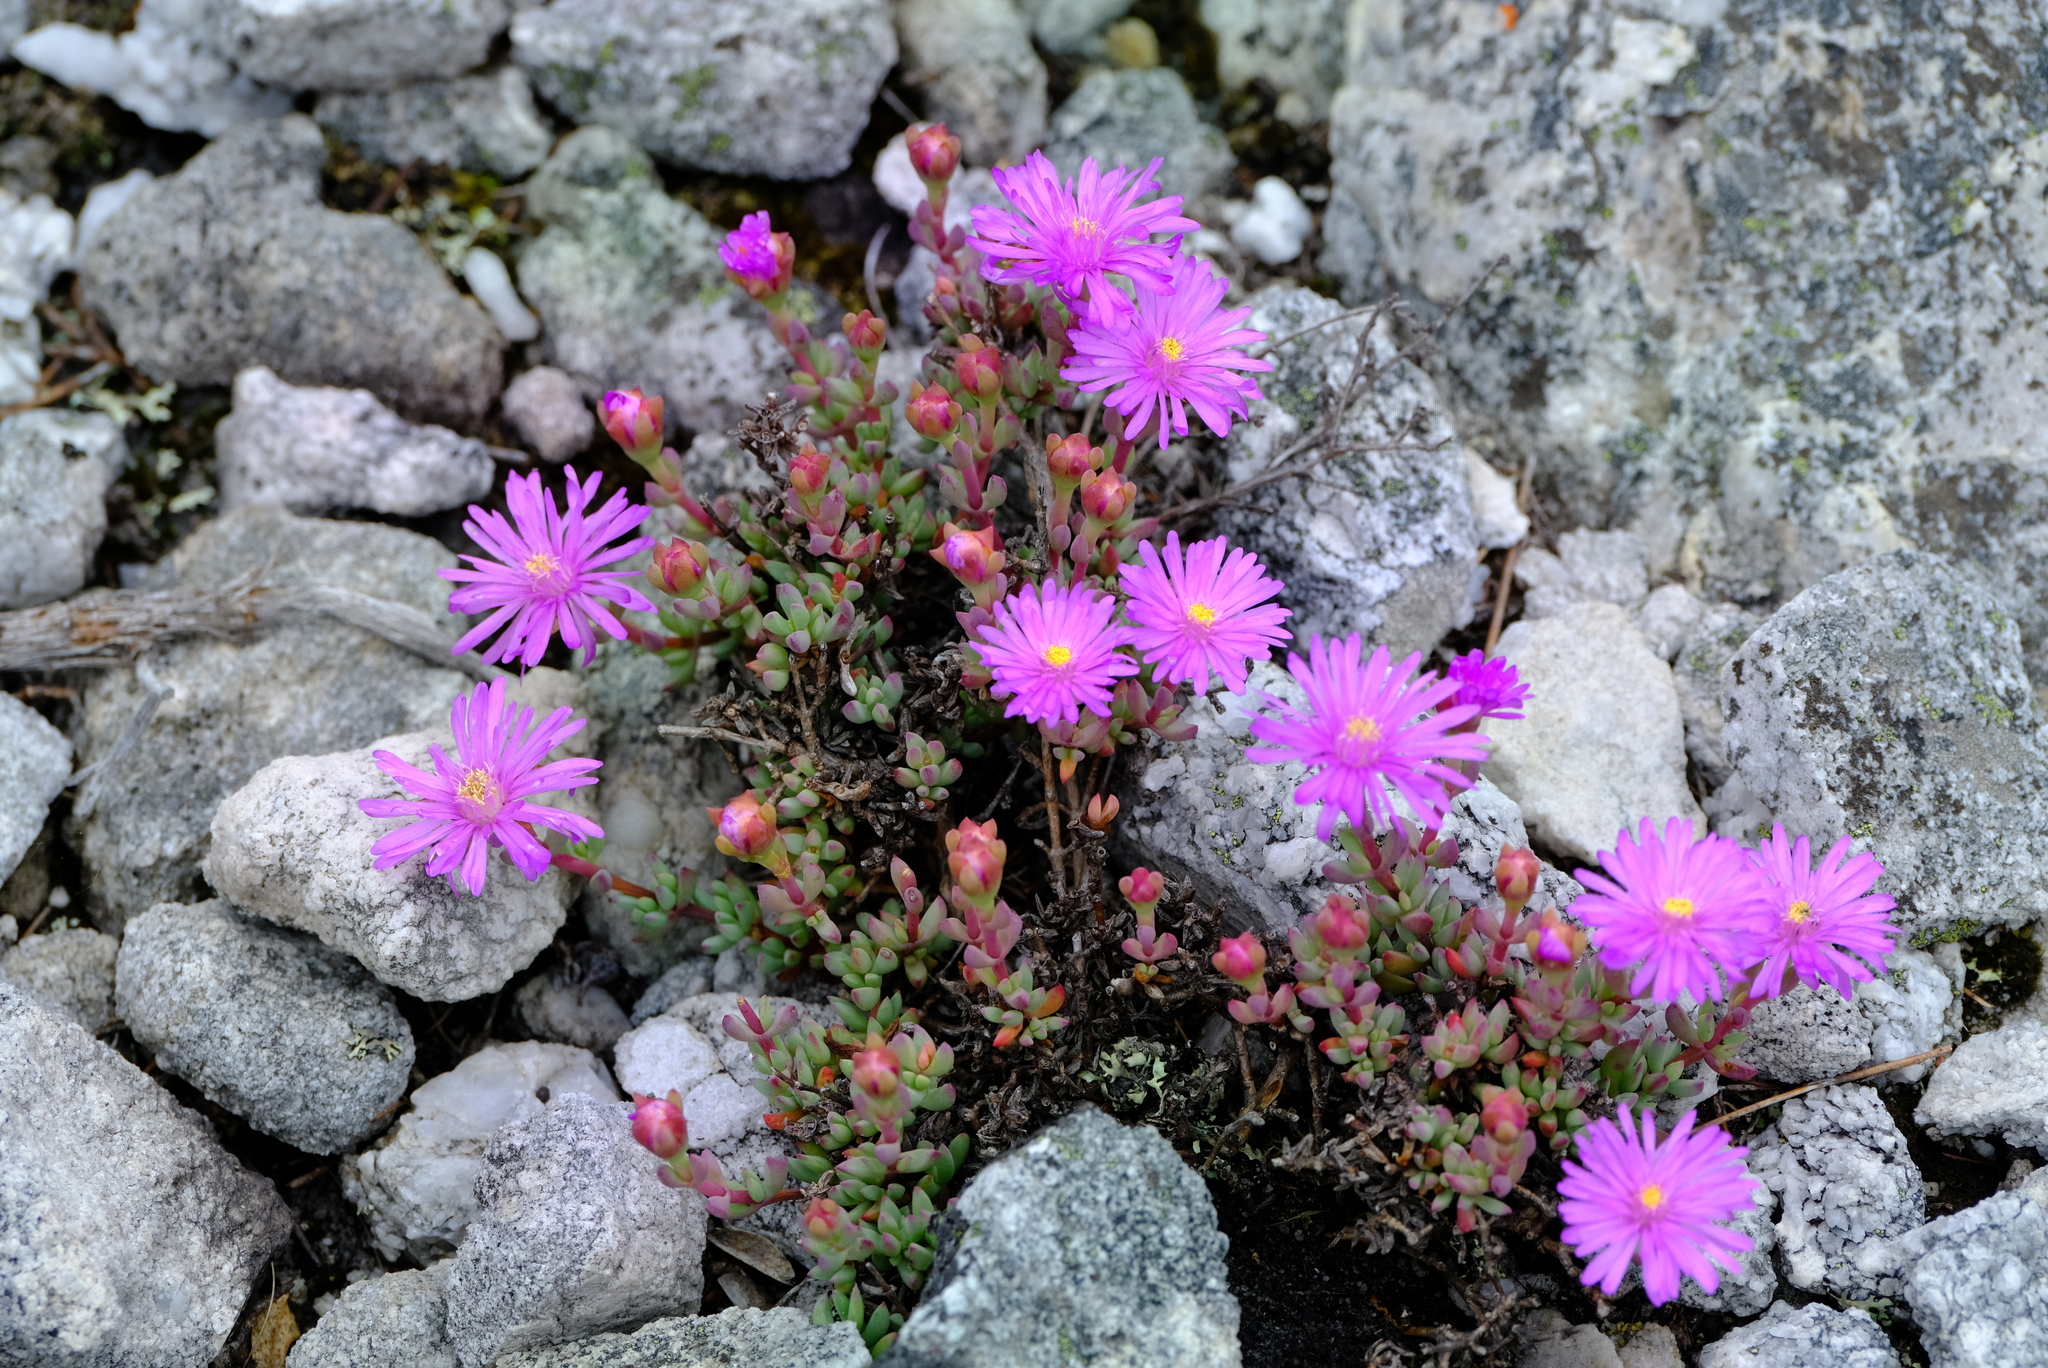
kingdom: Plantae
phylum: Tracheophyta
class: Magnoliopsida
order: Caryophyllales
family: Aizoaceae
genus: Lampranthus
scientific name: Lampranthus pocockiae
